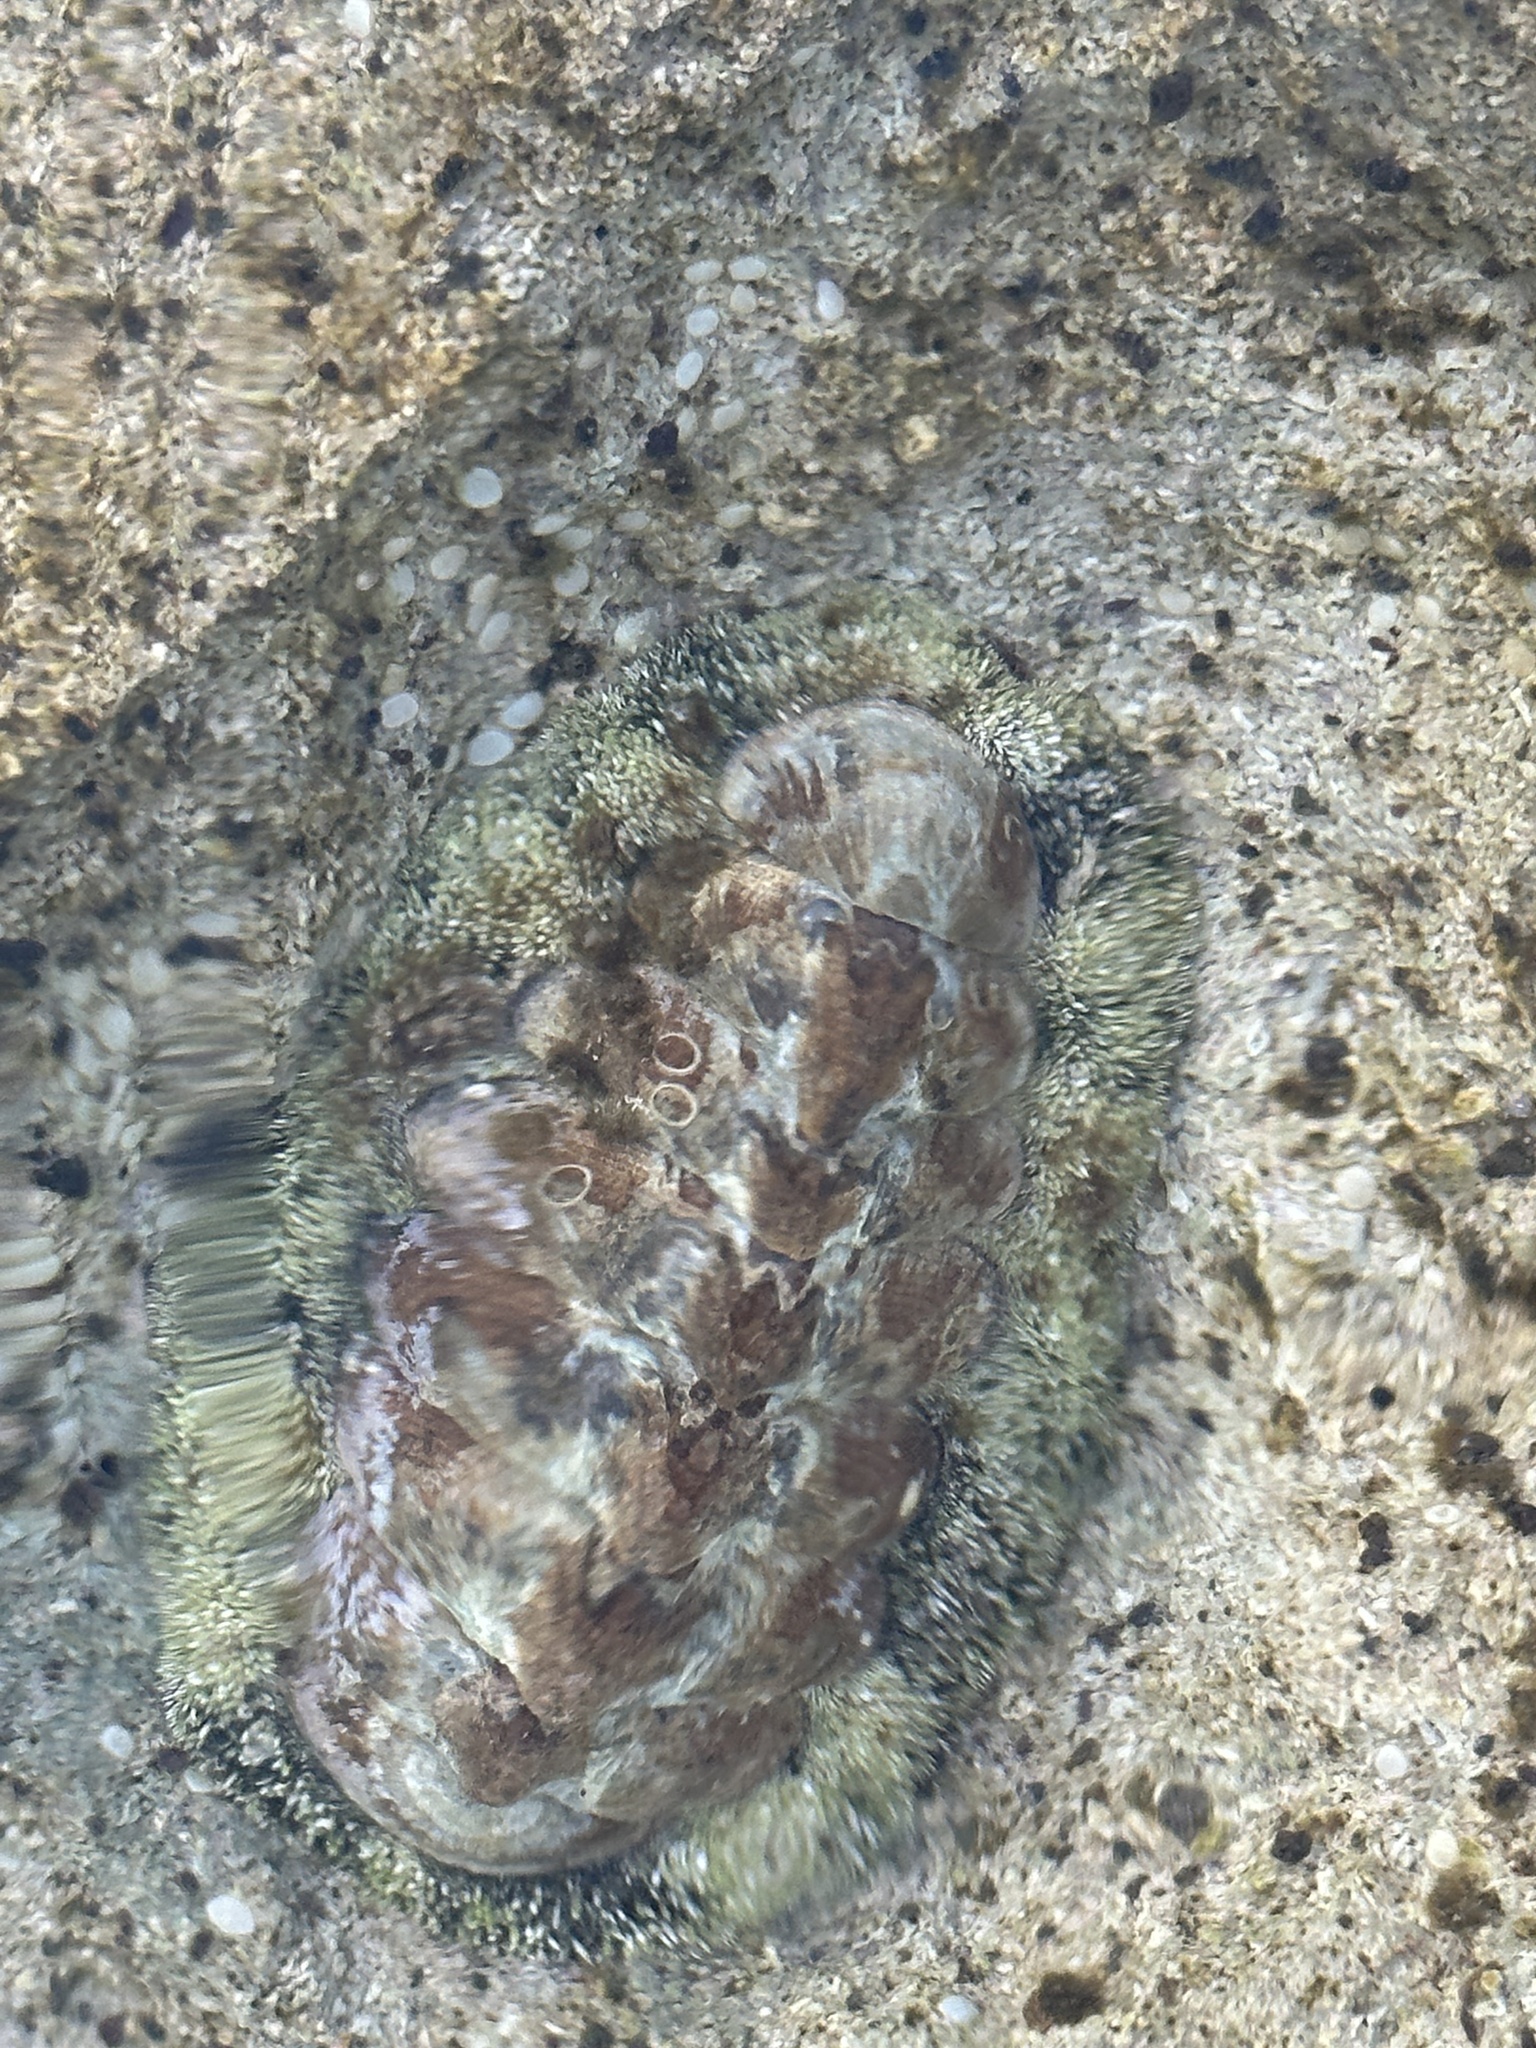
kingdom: Animalia
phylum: Mollusca
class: Polyplacophora
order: Chitonida
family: Chitonidae
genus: Acanthopleura
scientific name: Acanthopleura granulata
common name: West indian fuzzy chiton
